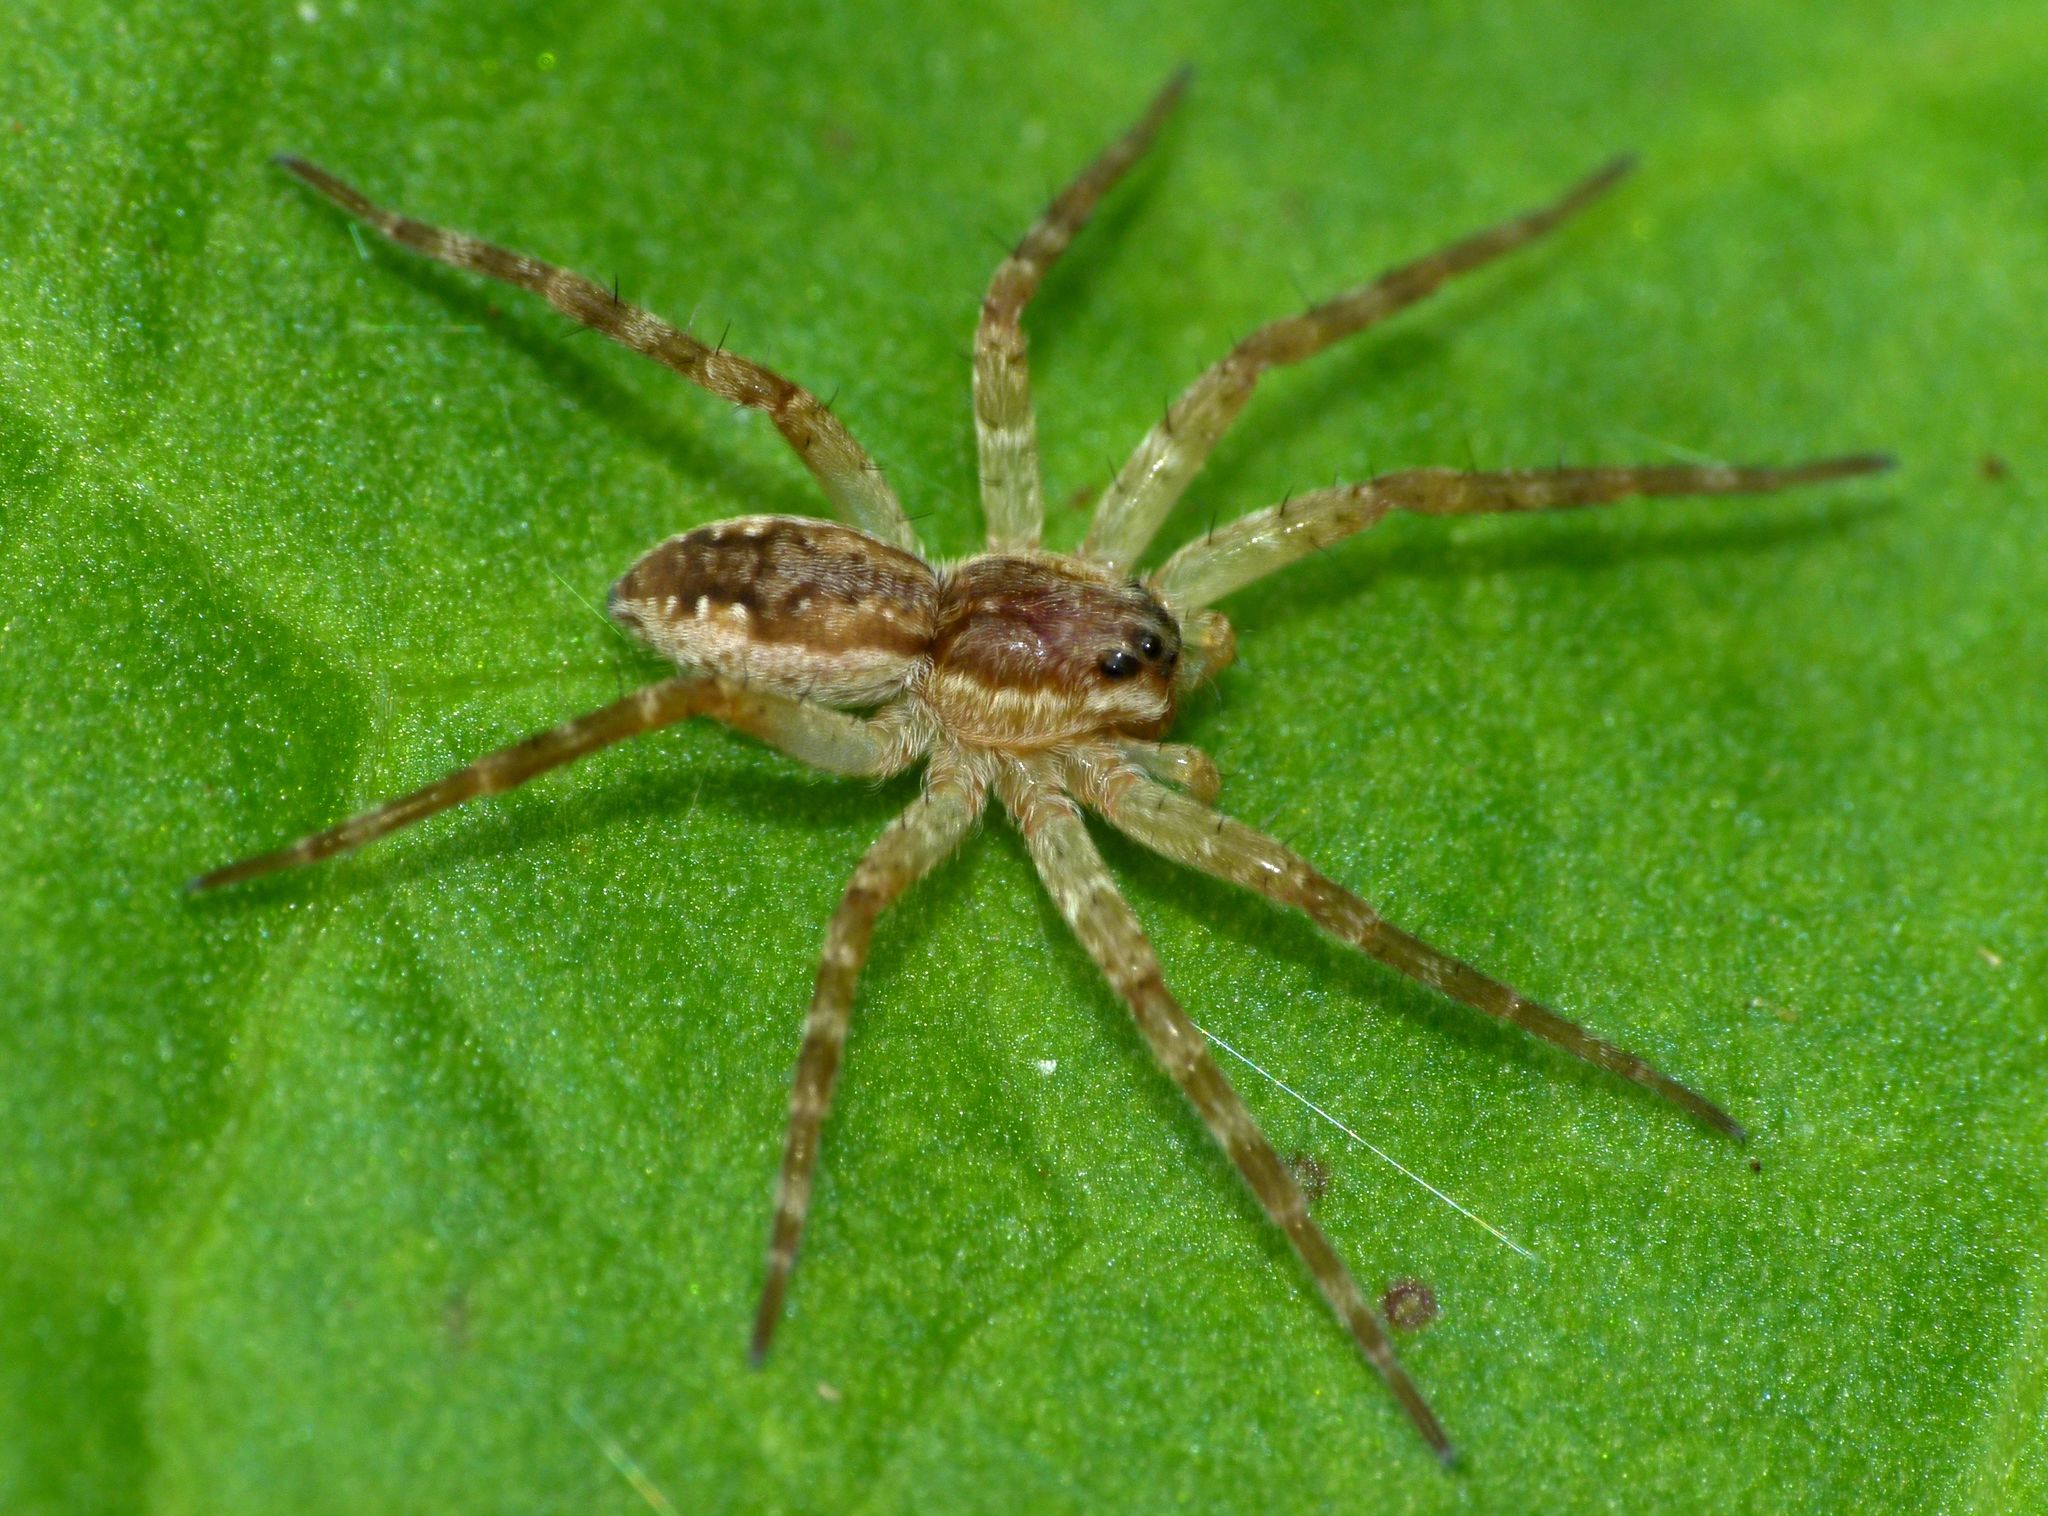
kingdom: Animalia
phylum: Arthropoda
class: Arachnida
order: Araneae
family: Pisauridae
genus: Dolomedes
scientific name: Dolomedes dondalei
